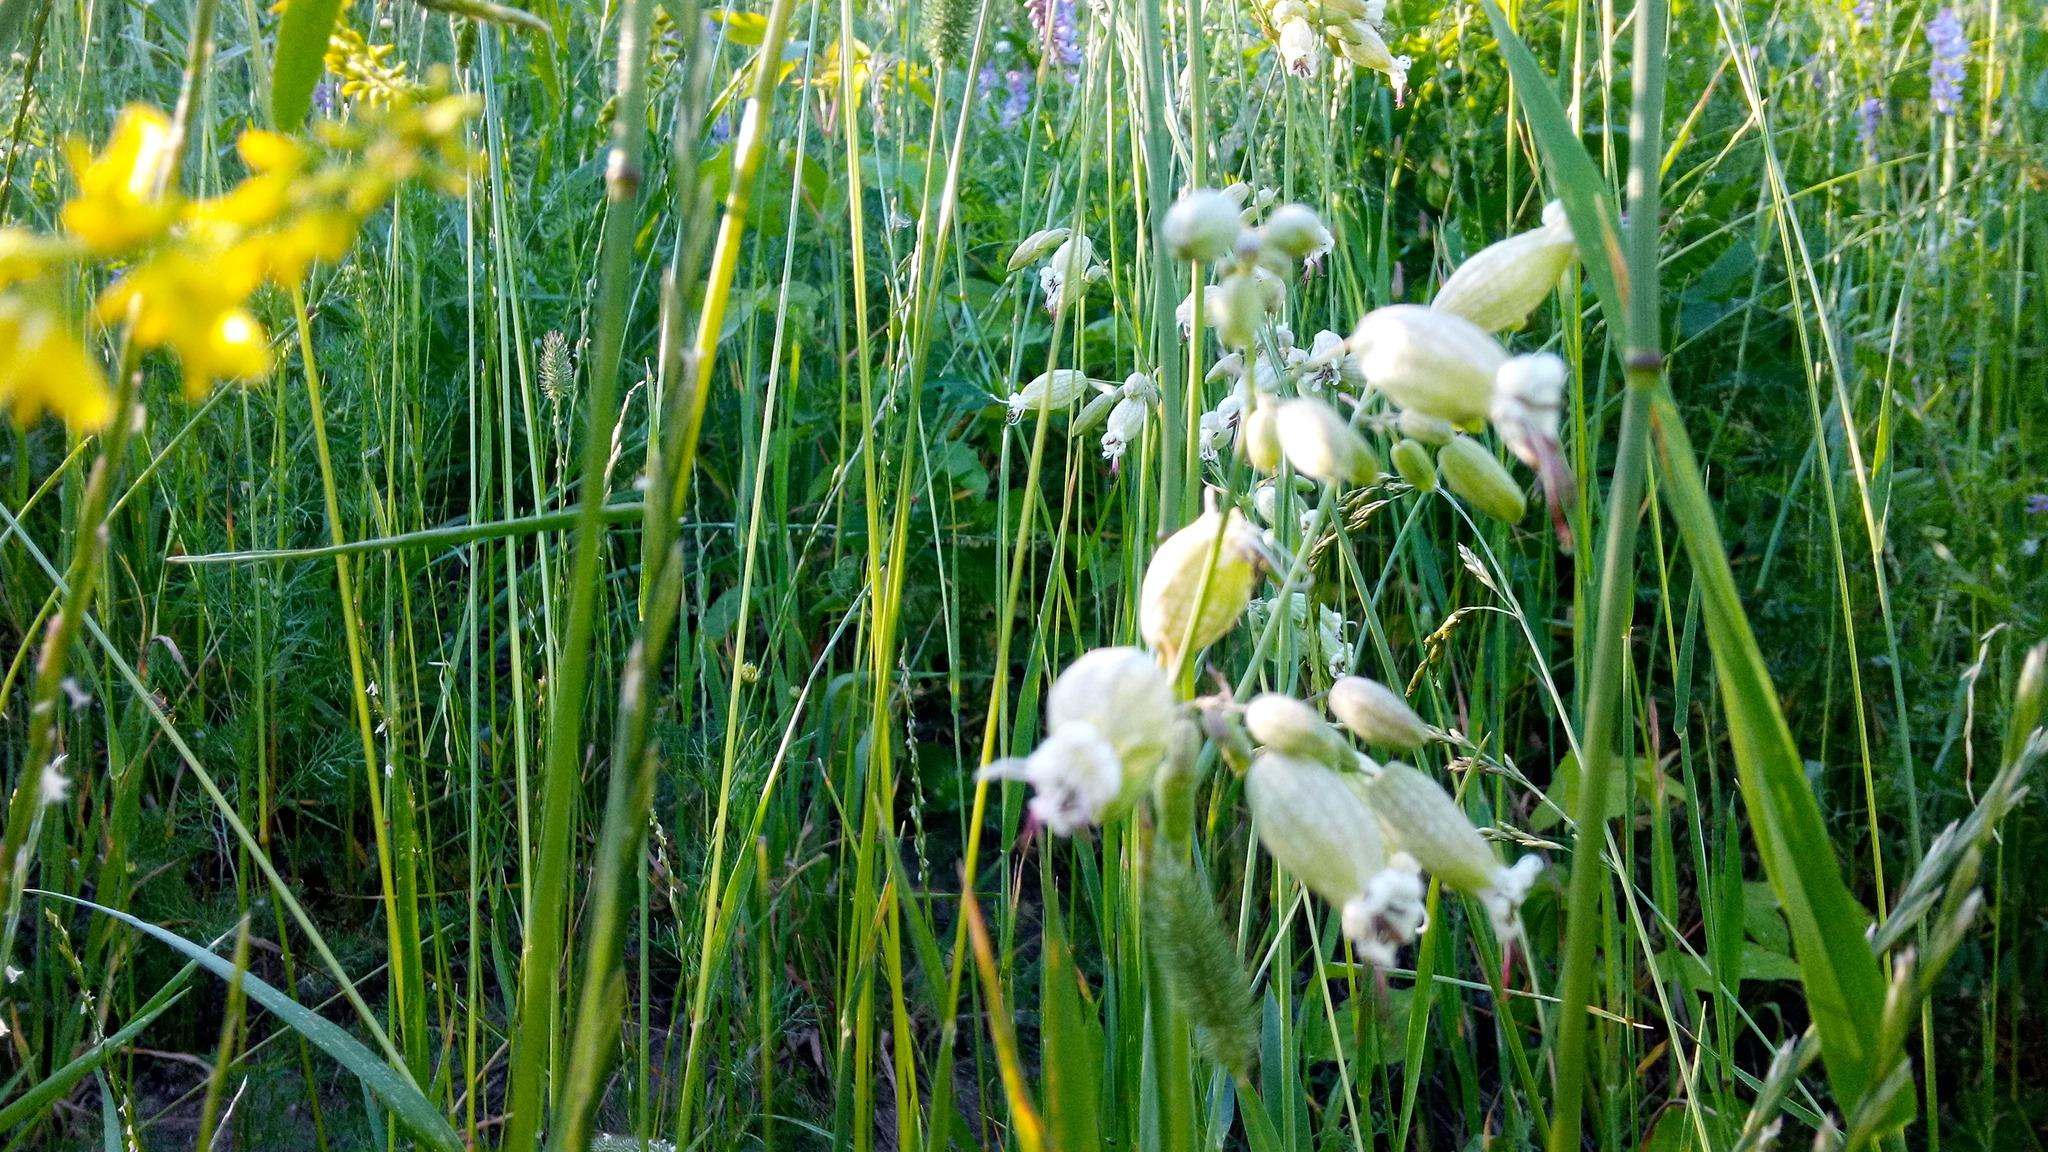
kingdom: Plantae
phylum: Tracheophyta
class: Magnoliopsida
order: Caryophyllales
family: Caryophyllaceae
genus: Silene
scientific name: Silene vulgaris
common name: Bladder campion
